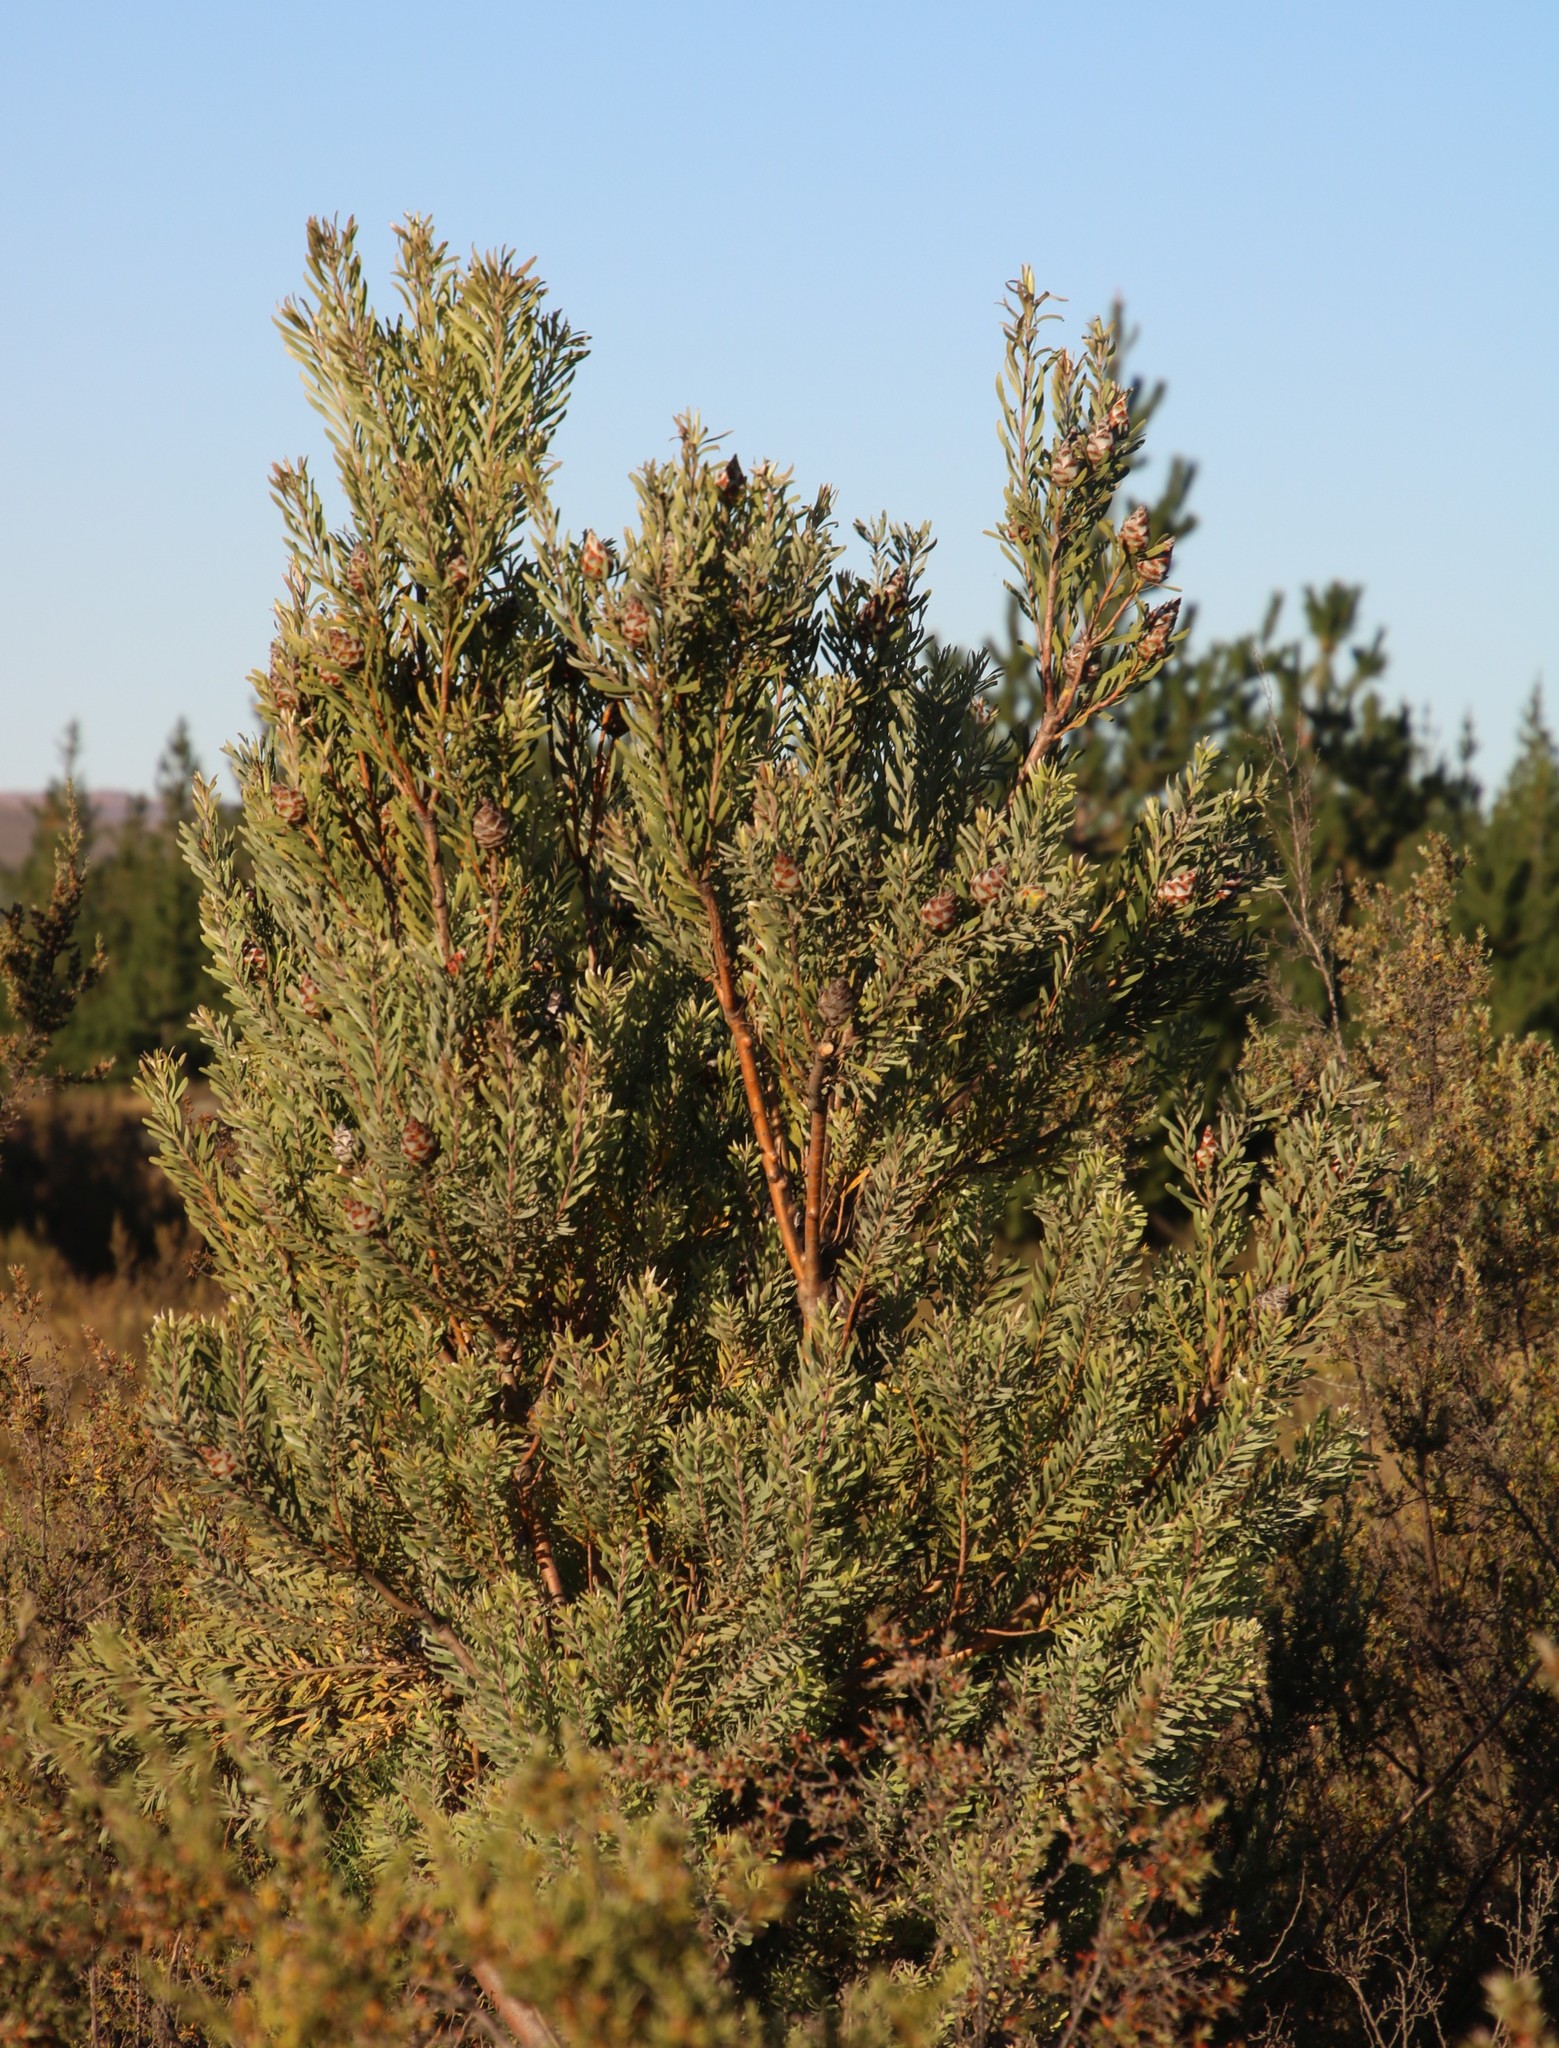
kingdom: Plantae
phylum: Tracheophyta
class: Magnoliopsida
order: Proteales
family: Proteaceae
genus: Leucadendron
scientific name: Leucadendron rubrum
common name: Spinning top
